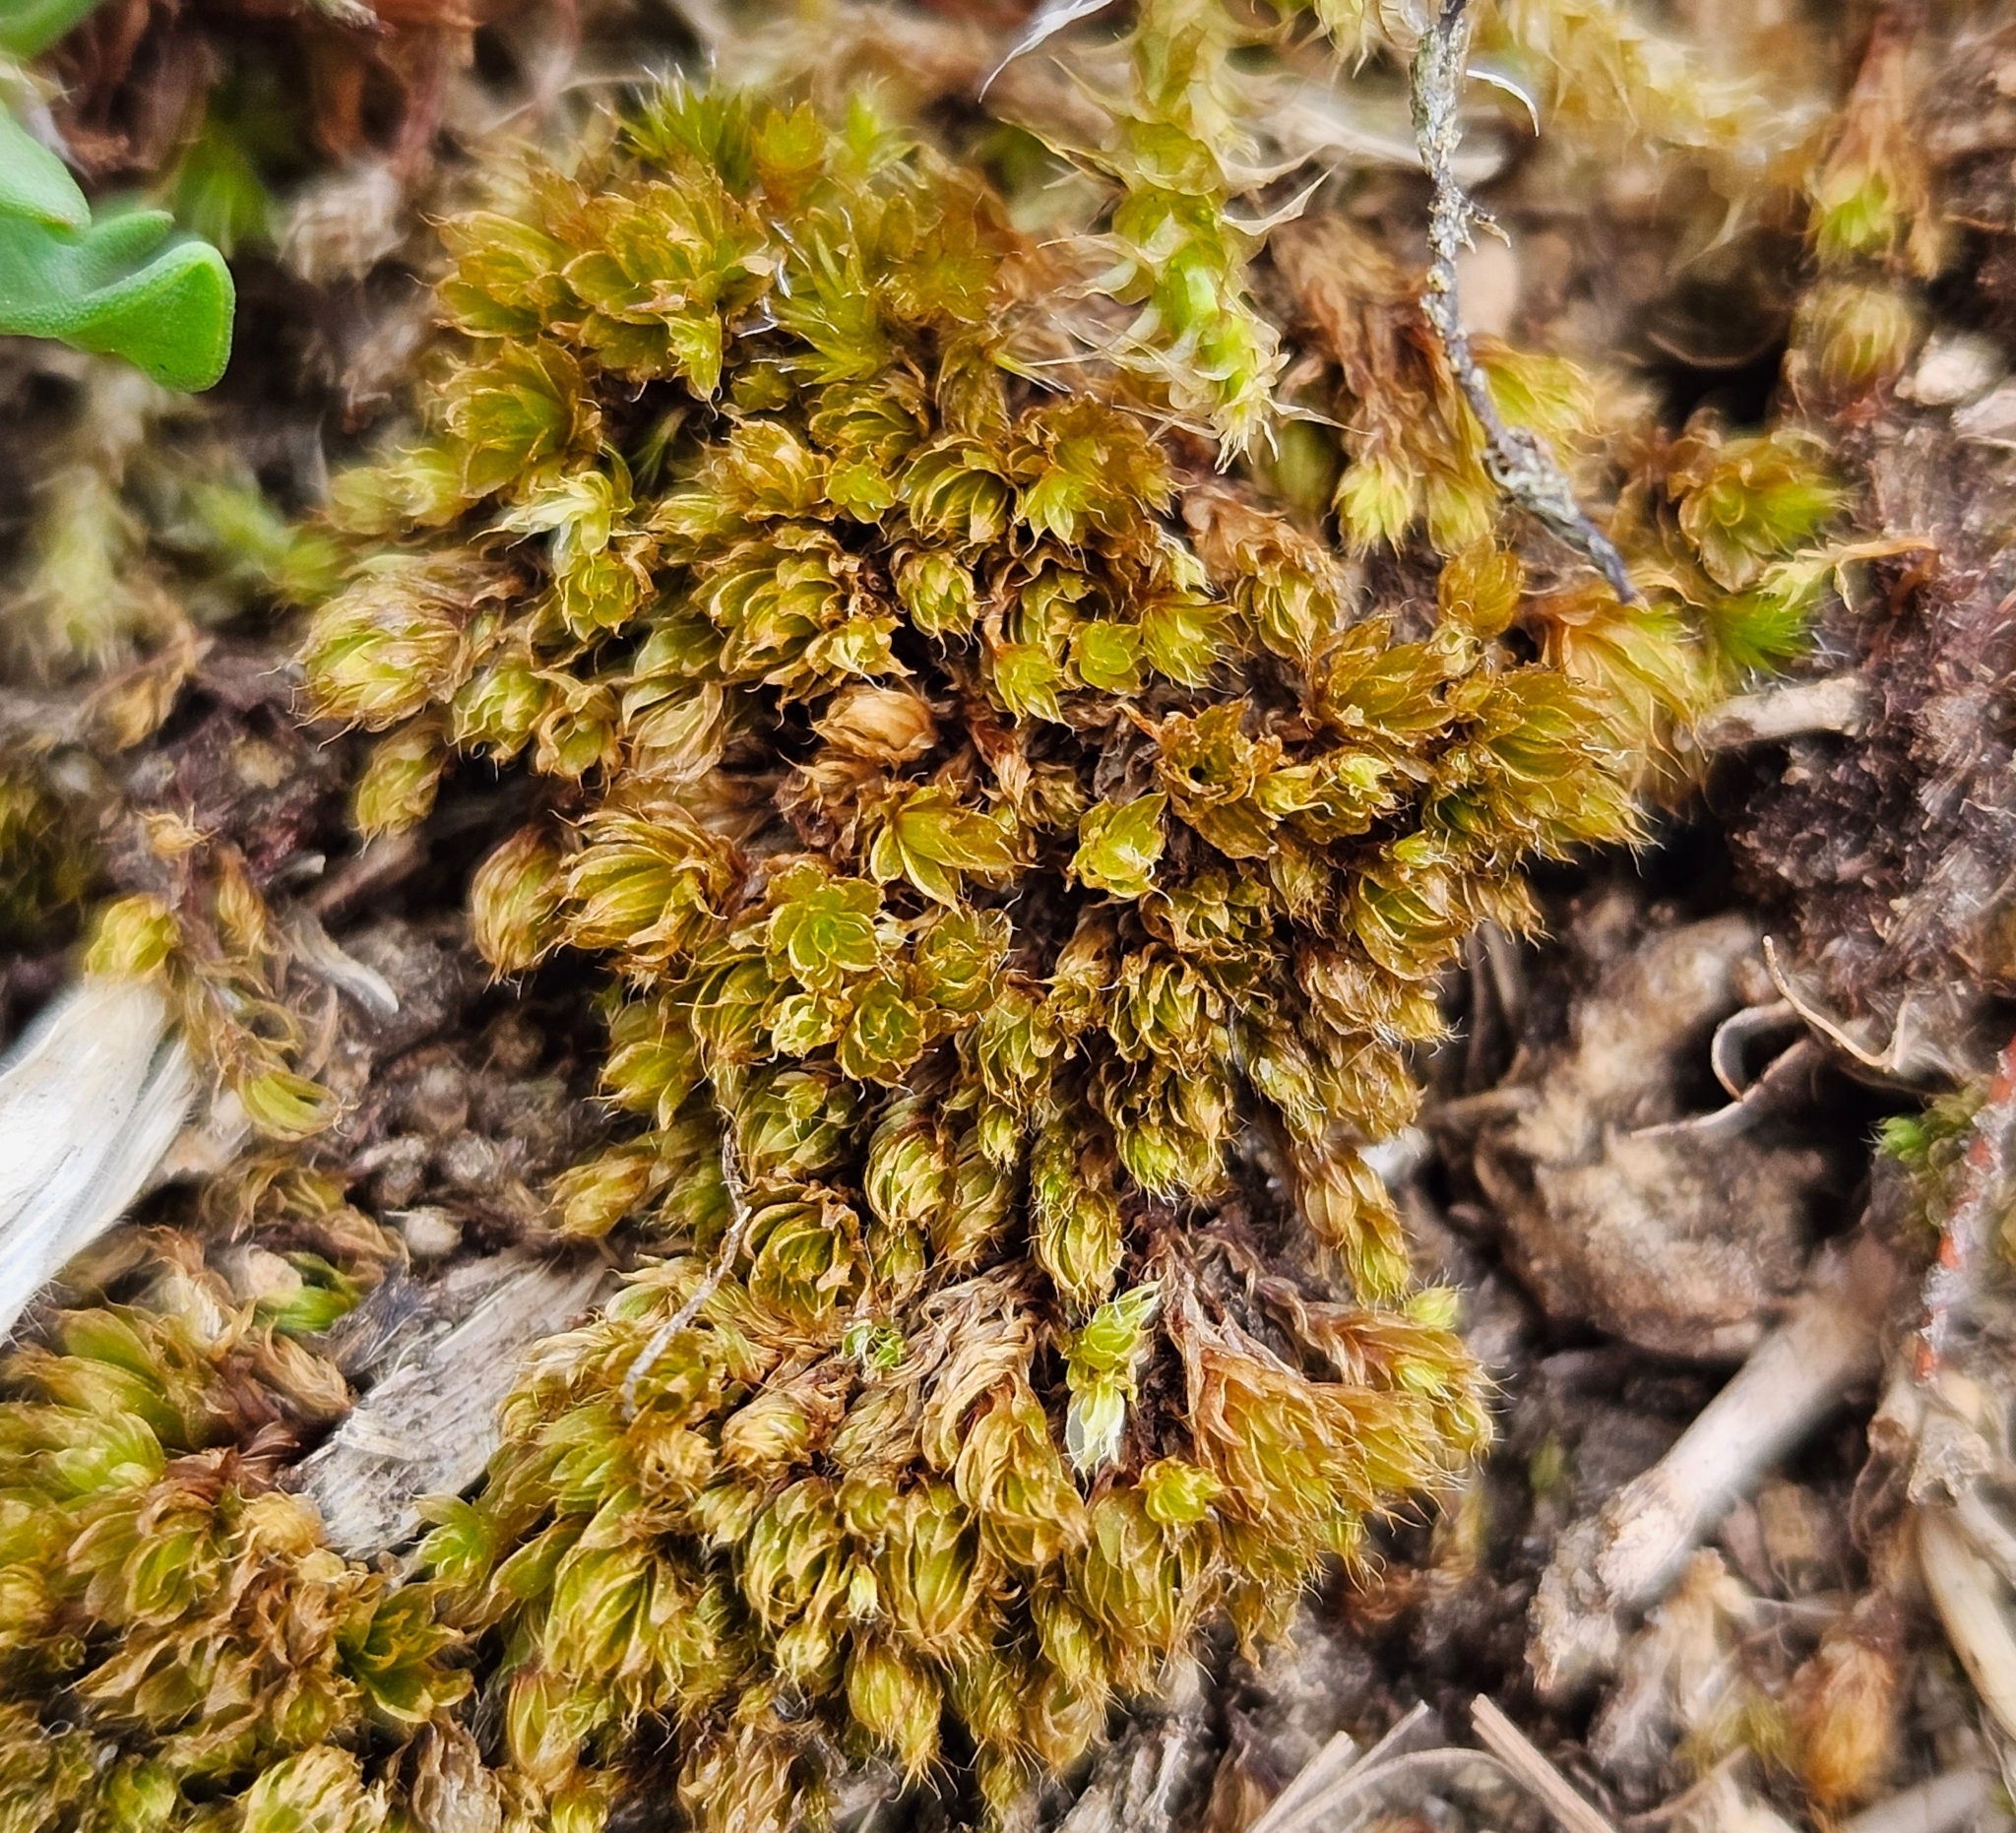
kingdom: Plantae
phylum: Bryophyta
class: Bryopsida
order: Bryales
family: Bryaceae
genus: Rosulabryum
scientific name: Rosulabryum capillare
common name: Capillary thread-moss
